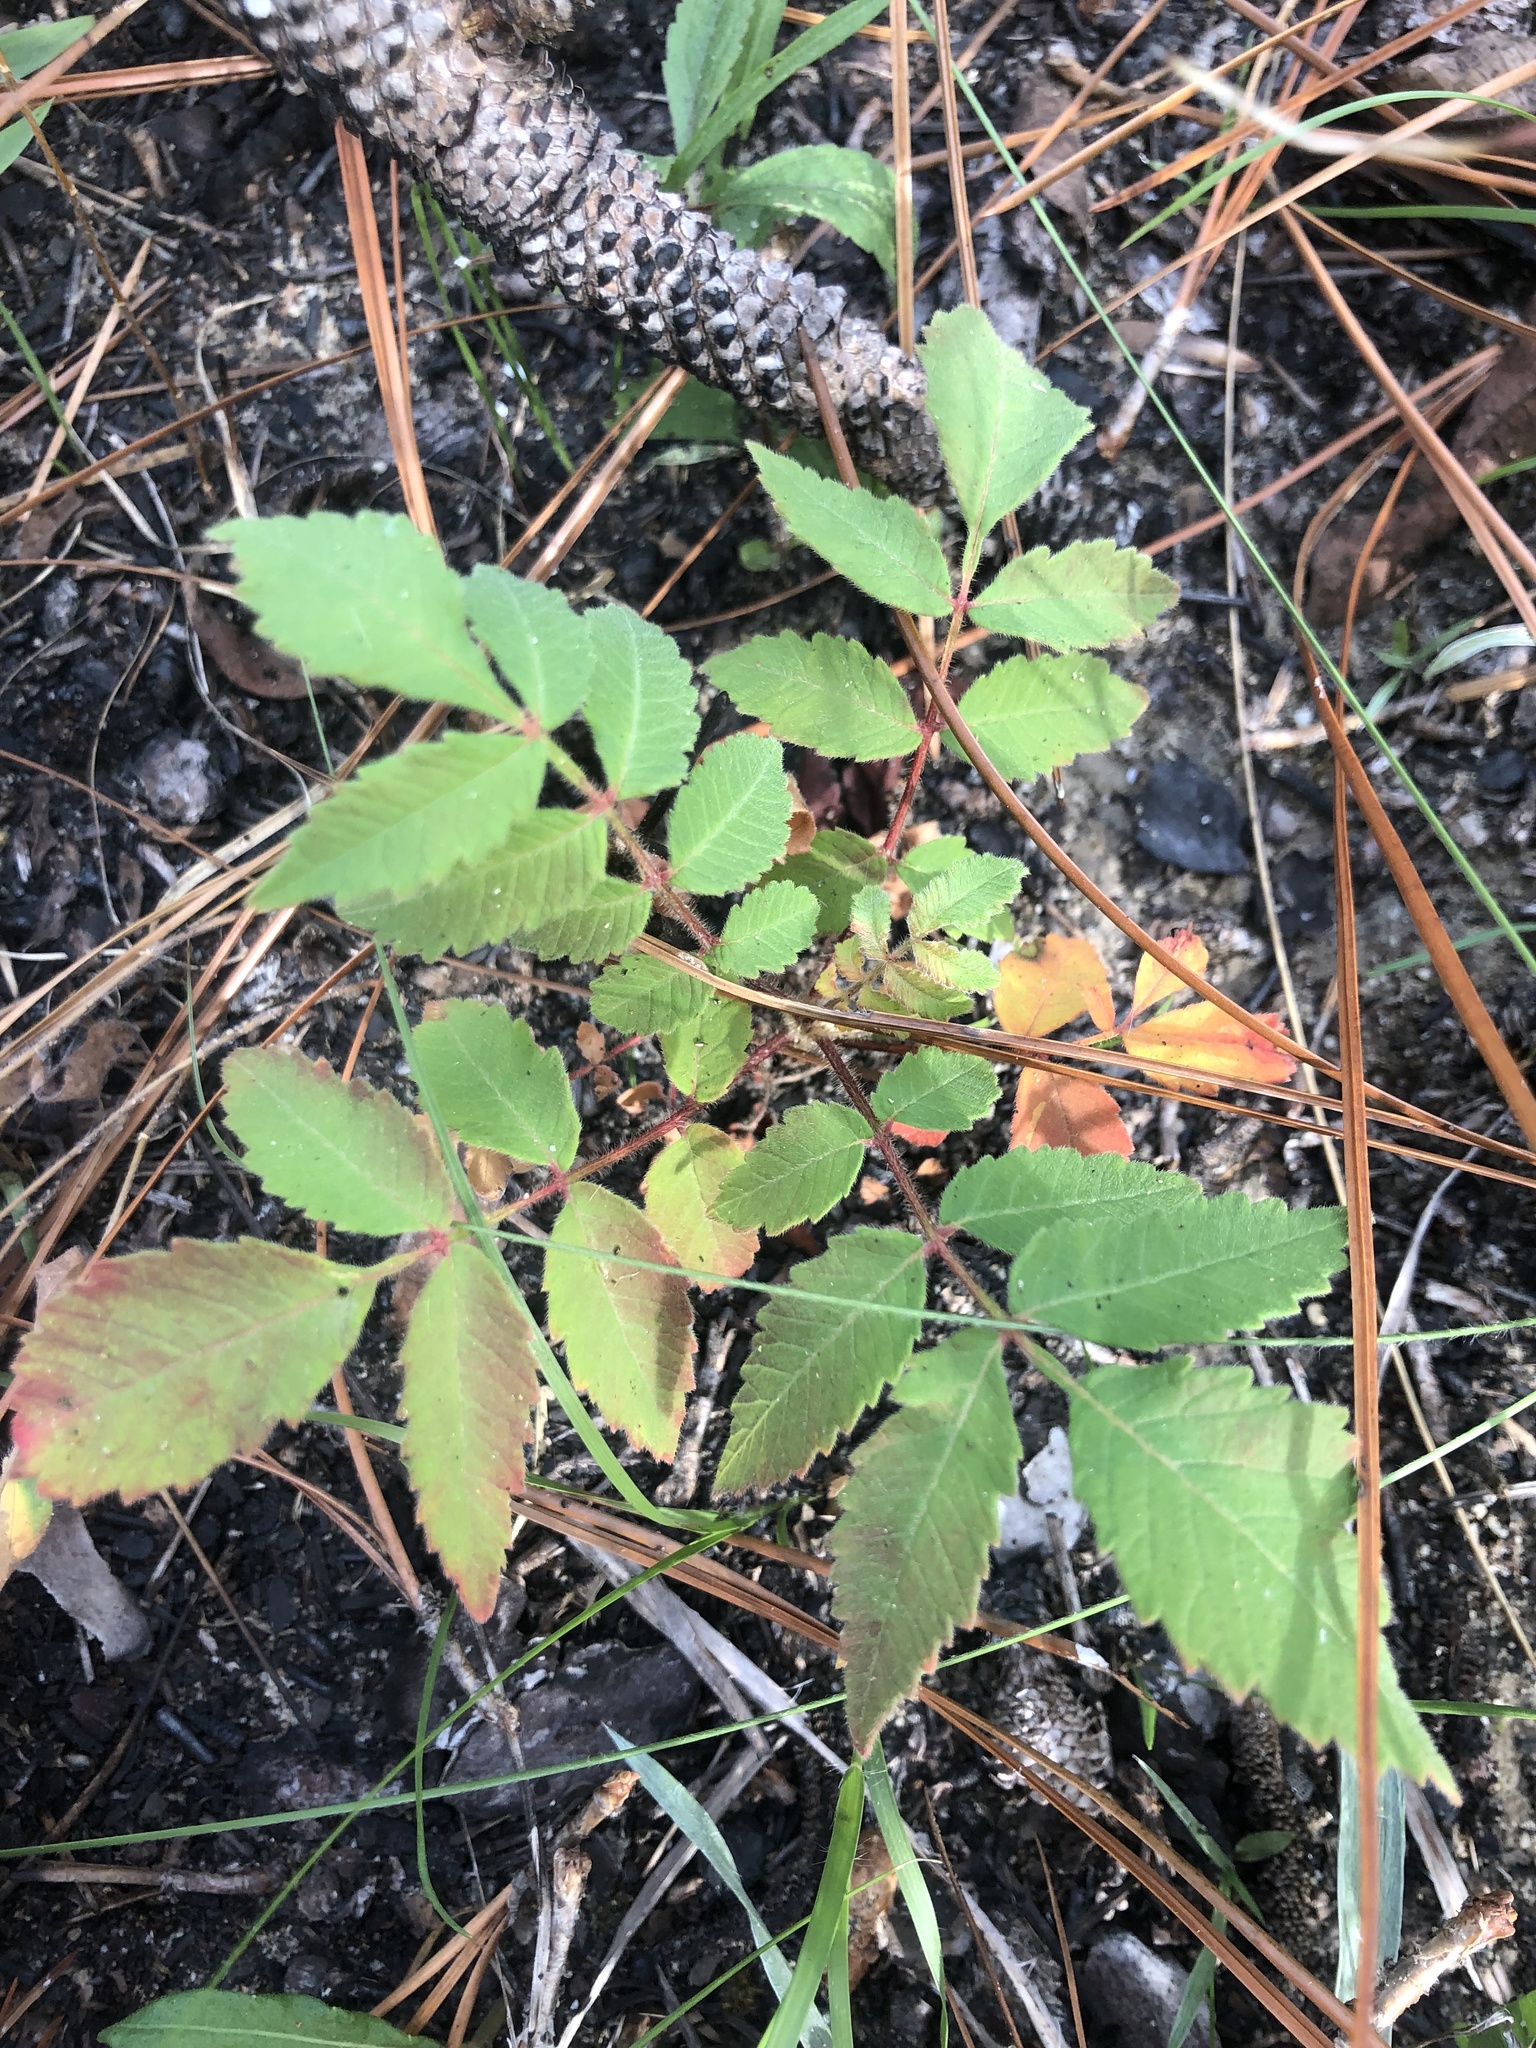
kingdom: Plantae
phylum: Tracheophyta
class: Magnoliopsida
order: Sapindales
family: Anacardiaceae
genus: Rhus
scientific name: Rhus michauxii
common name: Michaux's sumac
